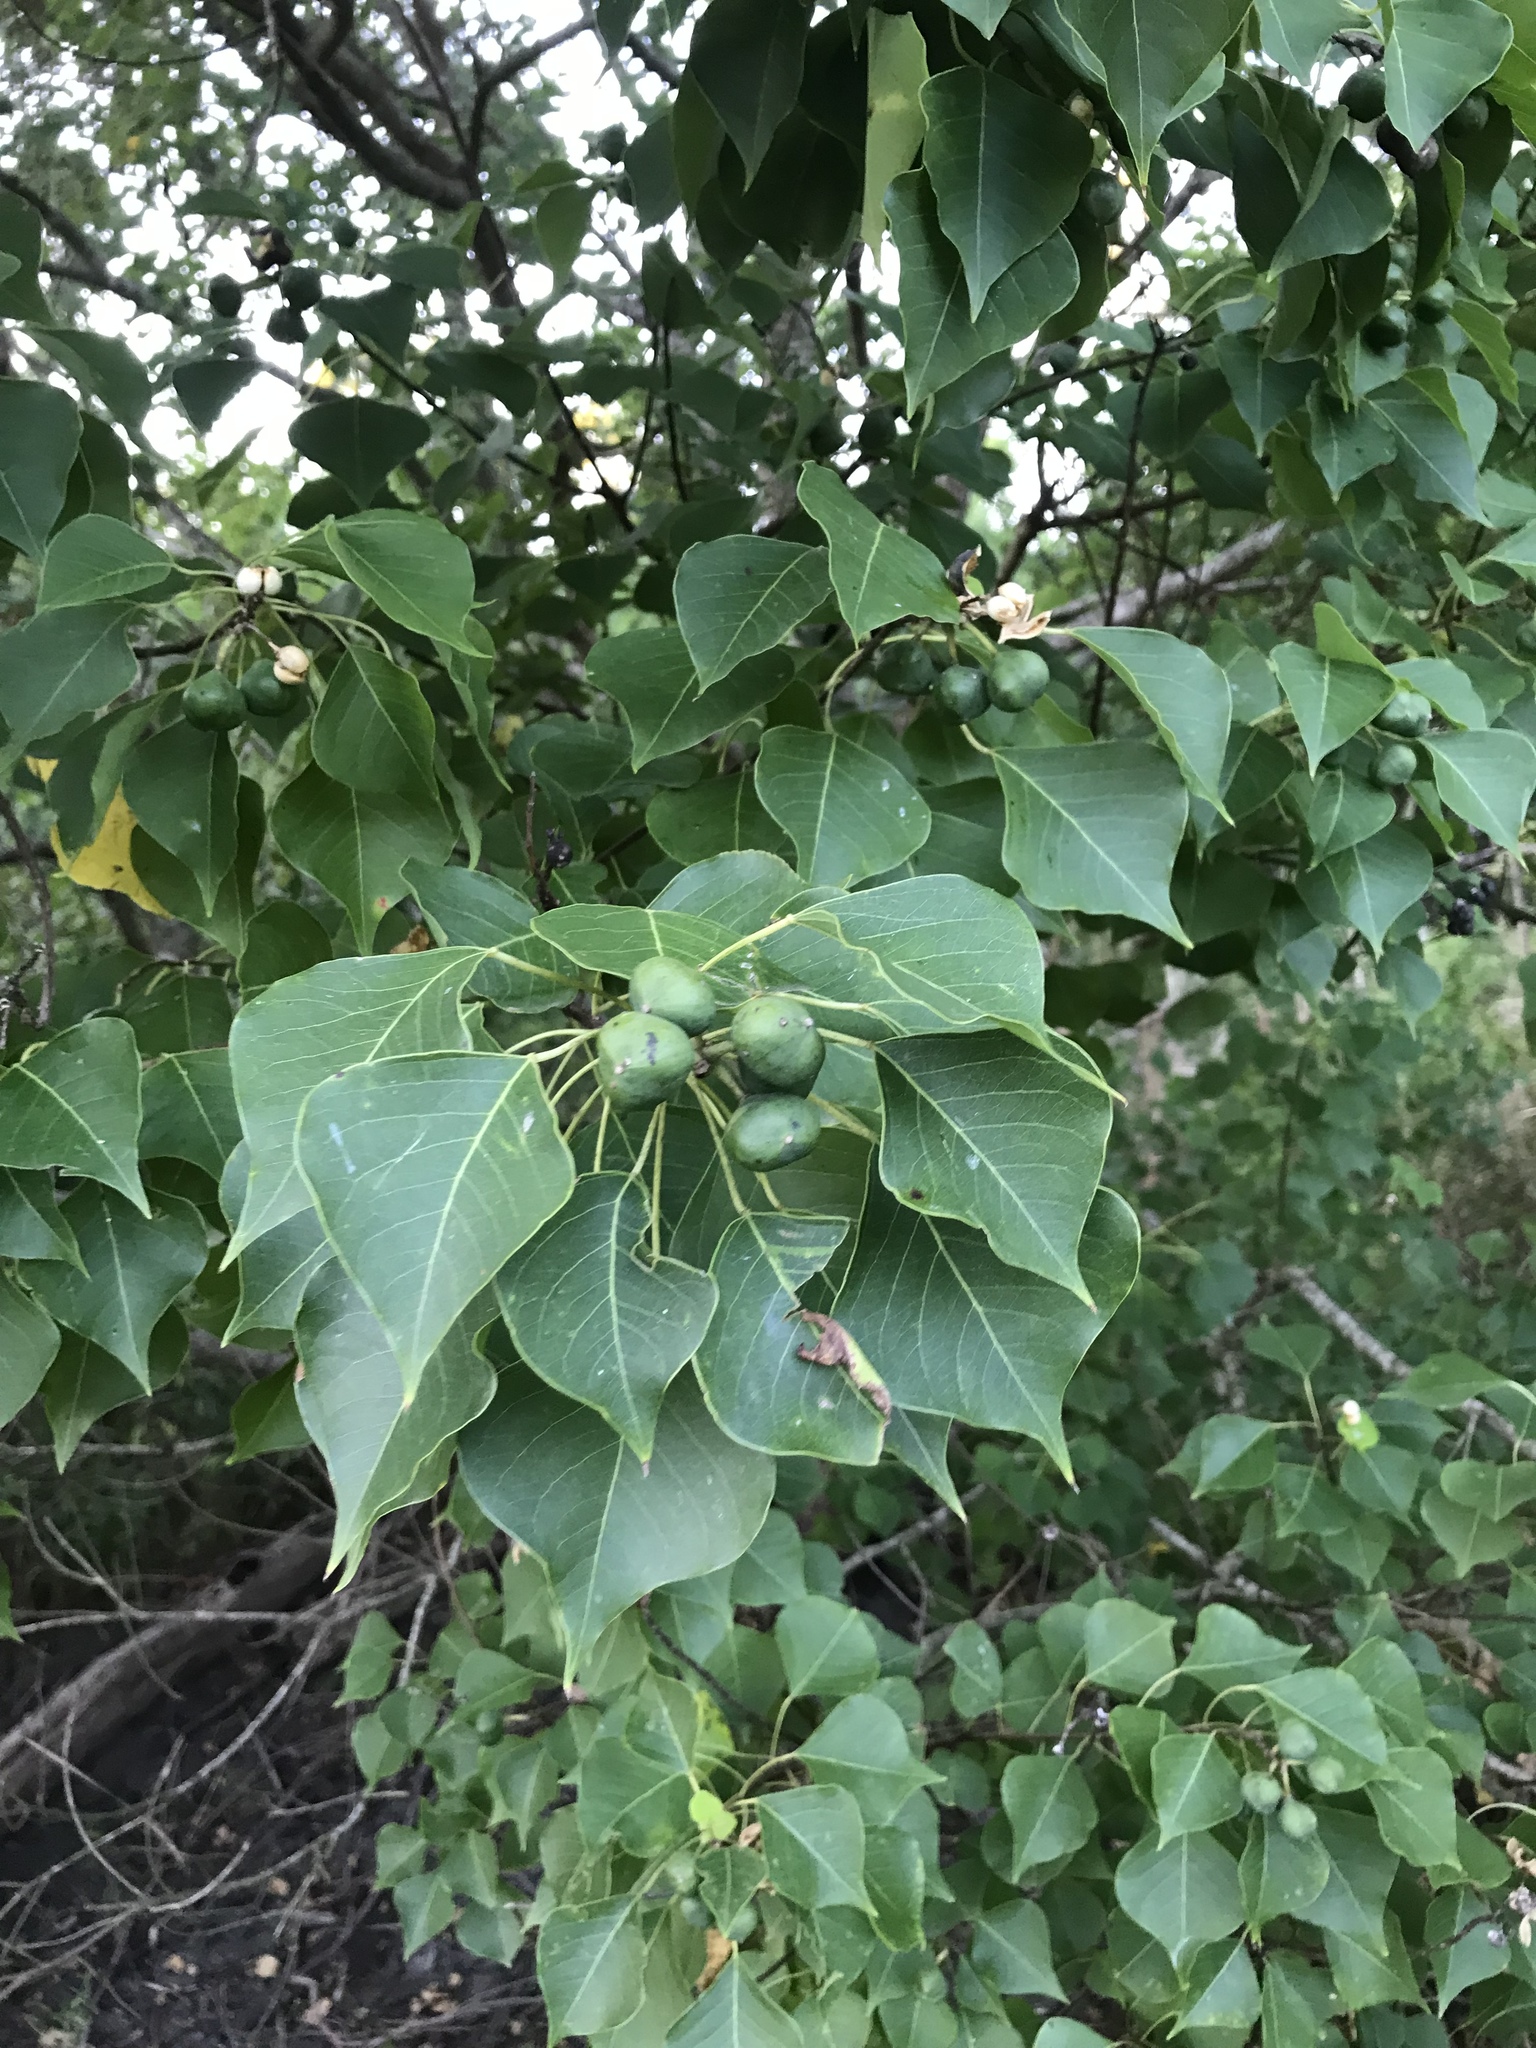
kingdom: Plantae
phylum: Tracheophyta
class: Magnoliopsida
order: Malpighiales
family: Euphorbiaceae
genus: Triadica
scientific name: Triadica sebifera
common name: Chinese tallow
